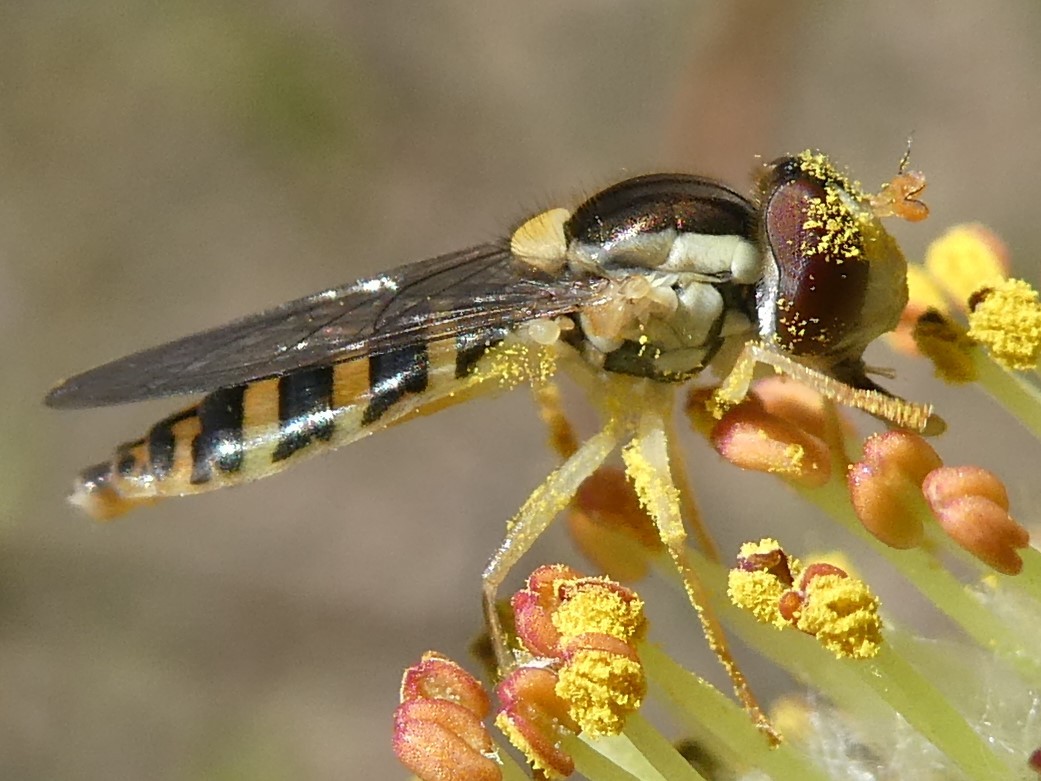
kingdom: Animalia
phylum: Arthropoda
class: Insecta
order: Diptera
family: Syrphidae
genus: Sphaerophoria
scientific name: Sphaerophoria
